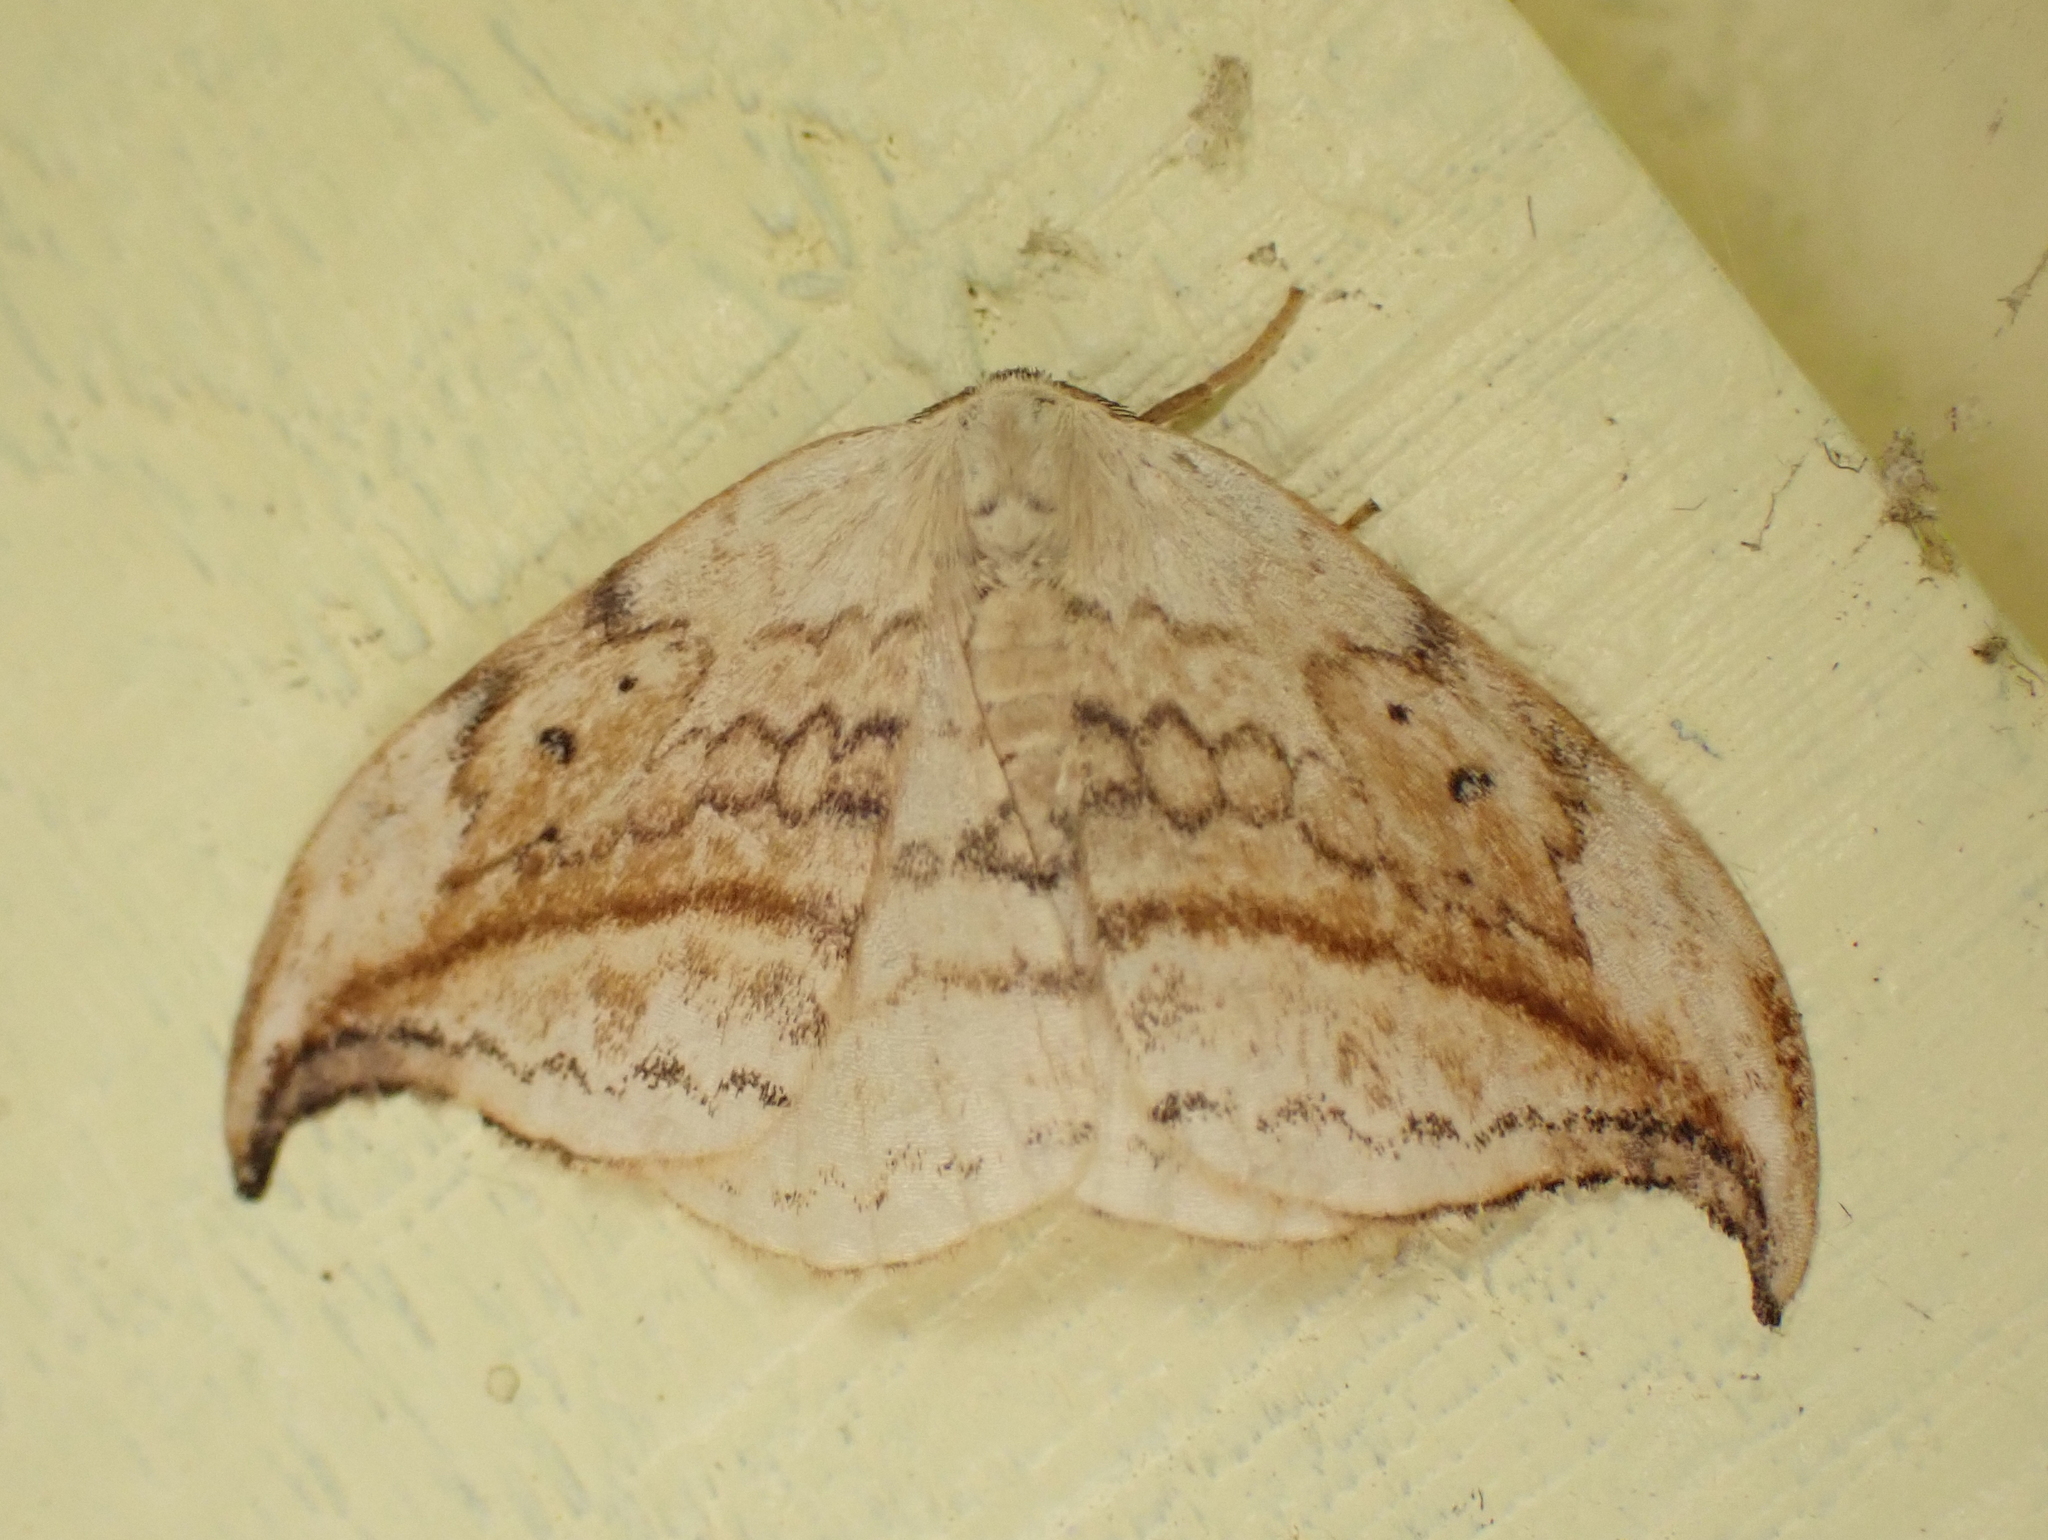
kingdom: Animalia
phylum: Arthropoda
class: Insecta
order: Lepidoptera
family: Drepanidae
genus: Drepana
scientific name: Drepana arcuata
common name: Arched hooktip moth
